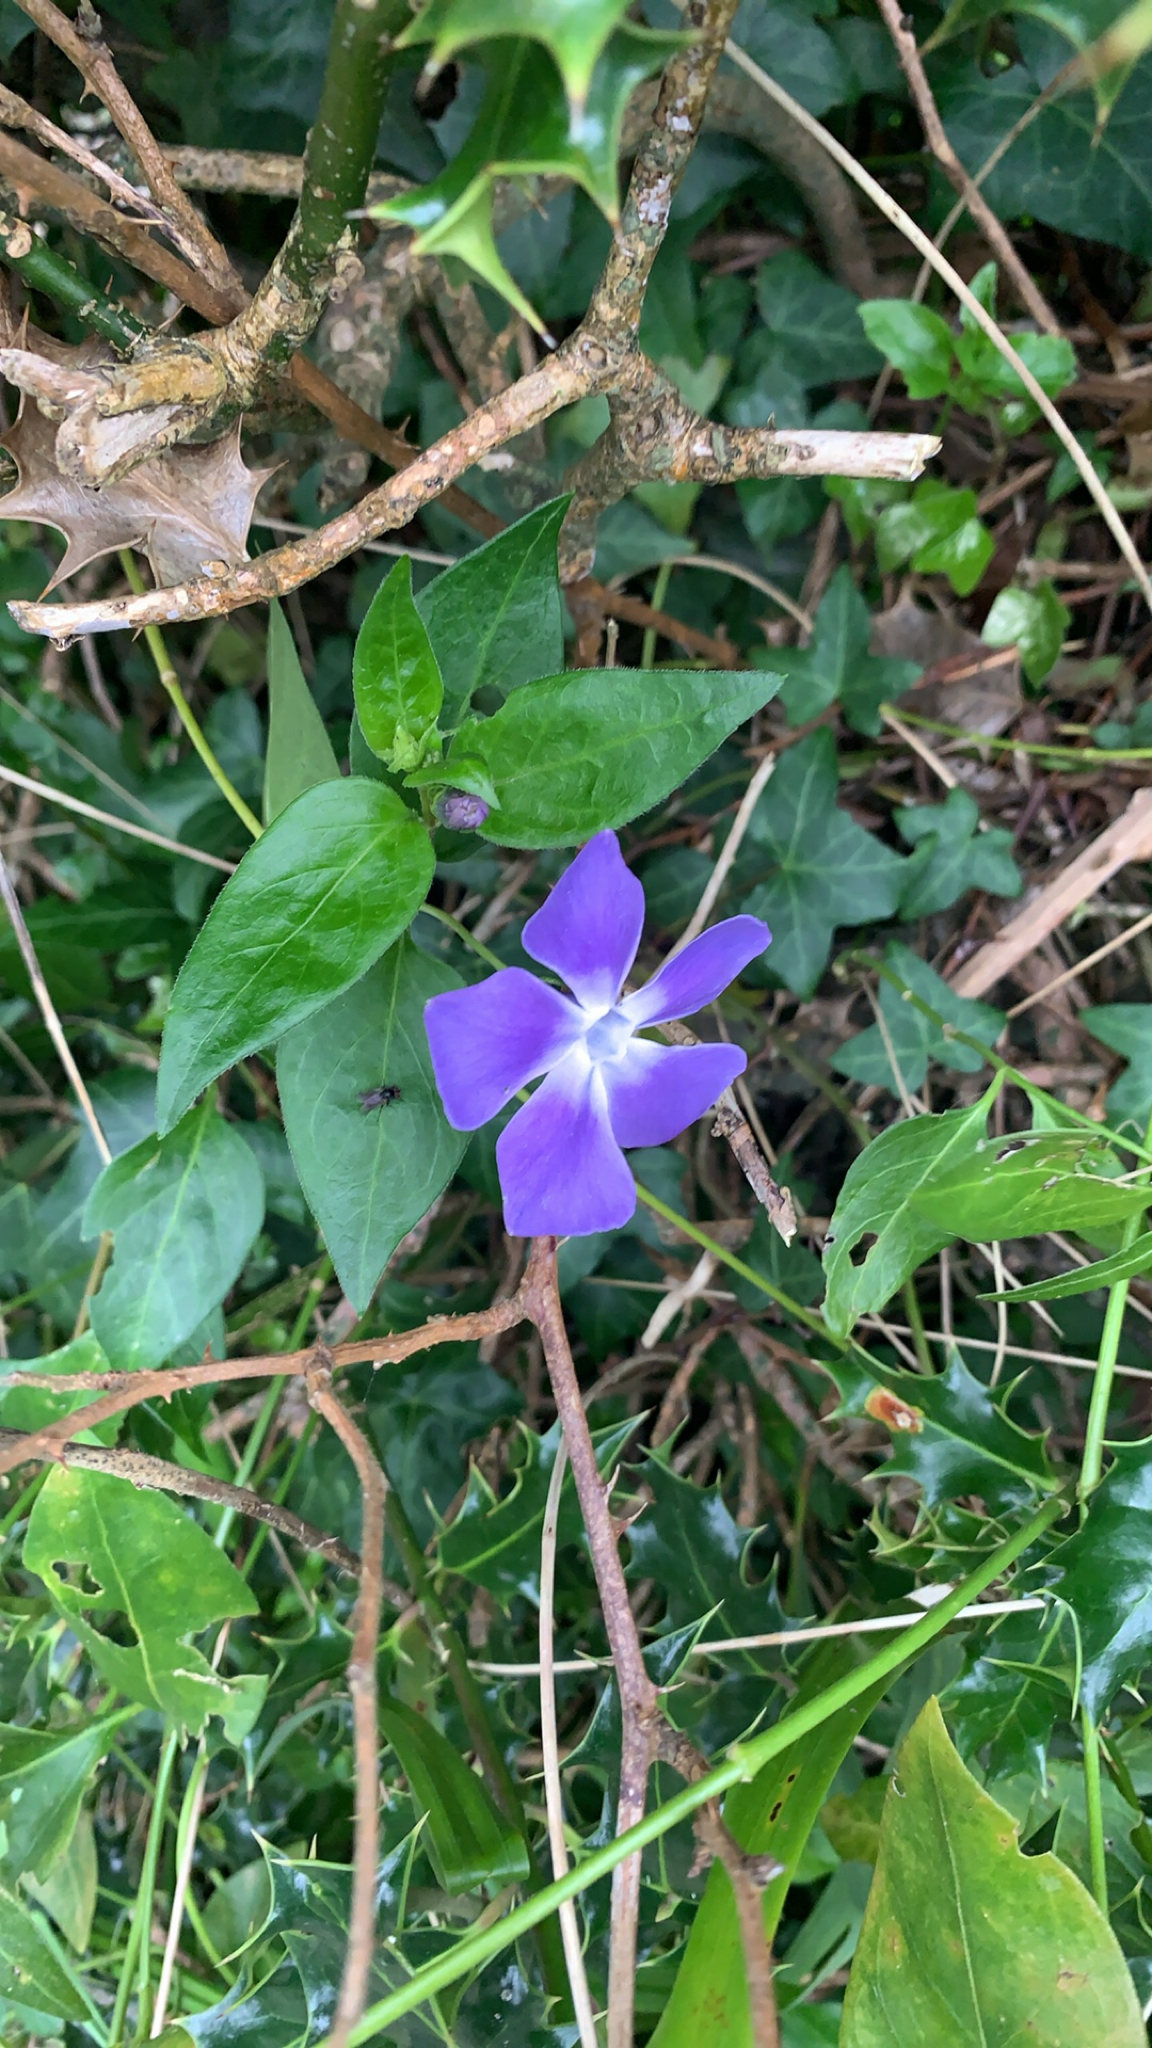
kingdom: Plantae
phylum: Tracheophyta
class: Magnoliopsida
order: Gentianales
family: Apocynaceae
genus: Vinca
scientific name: Vinca major
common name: Greater periwinkle
